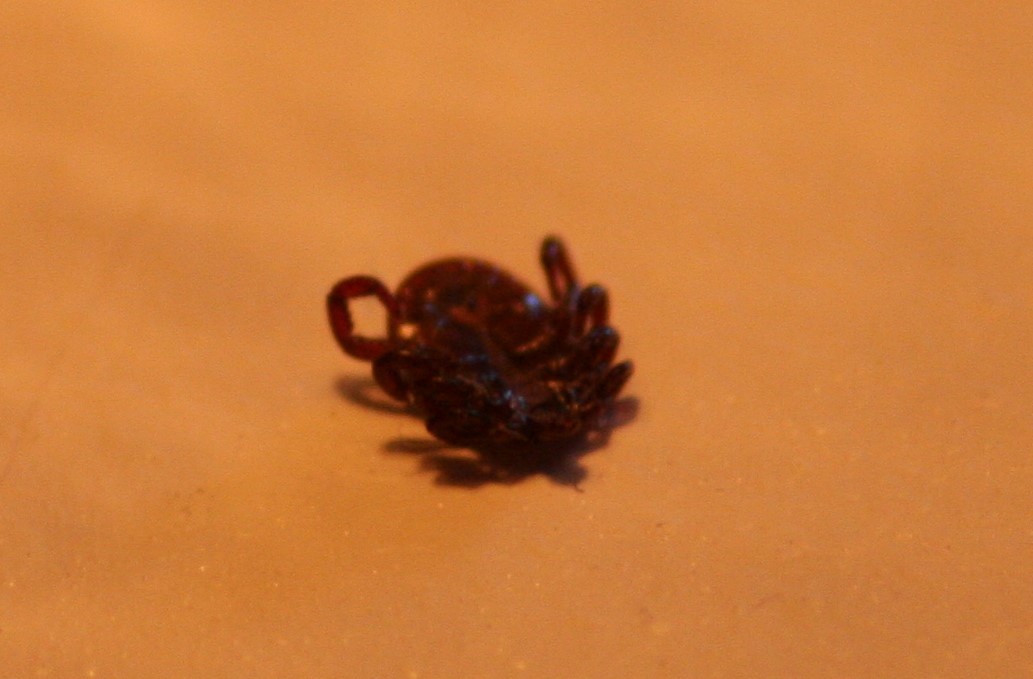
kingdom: Animalia
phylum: Arthropoda
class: Arachnida
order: Ixodida
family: Ixodidae
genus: Dermacentor
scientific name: Dermacentor variabilis
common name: American dog tick
